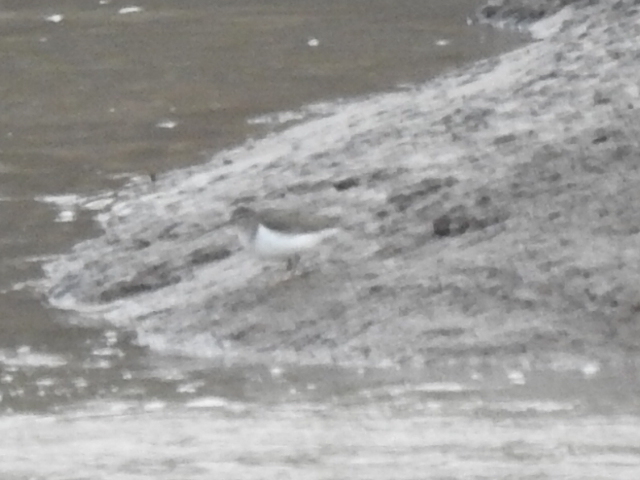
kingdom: Animalia
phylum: Chordata
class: Aves
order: Charadriiformes
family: Scolopacidae
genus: Actitis
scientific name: Actitis macularius
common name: Spotted sandpiper
